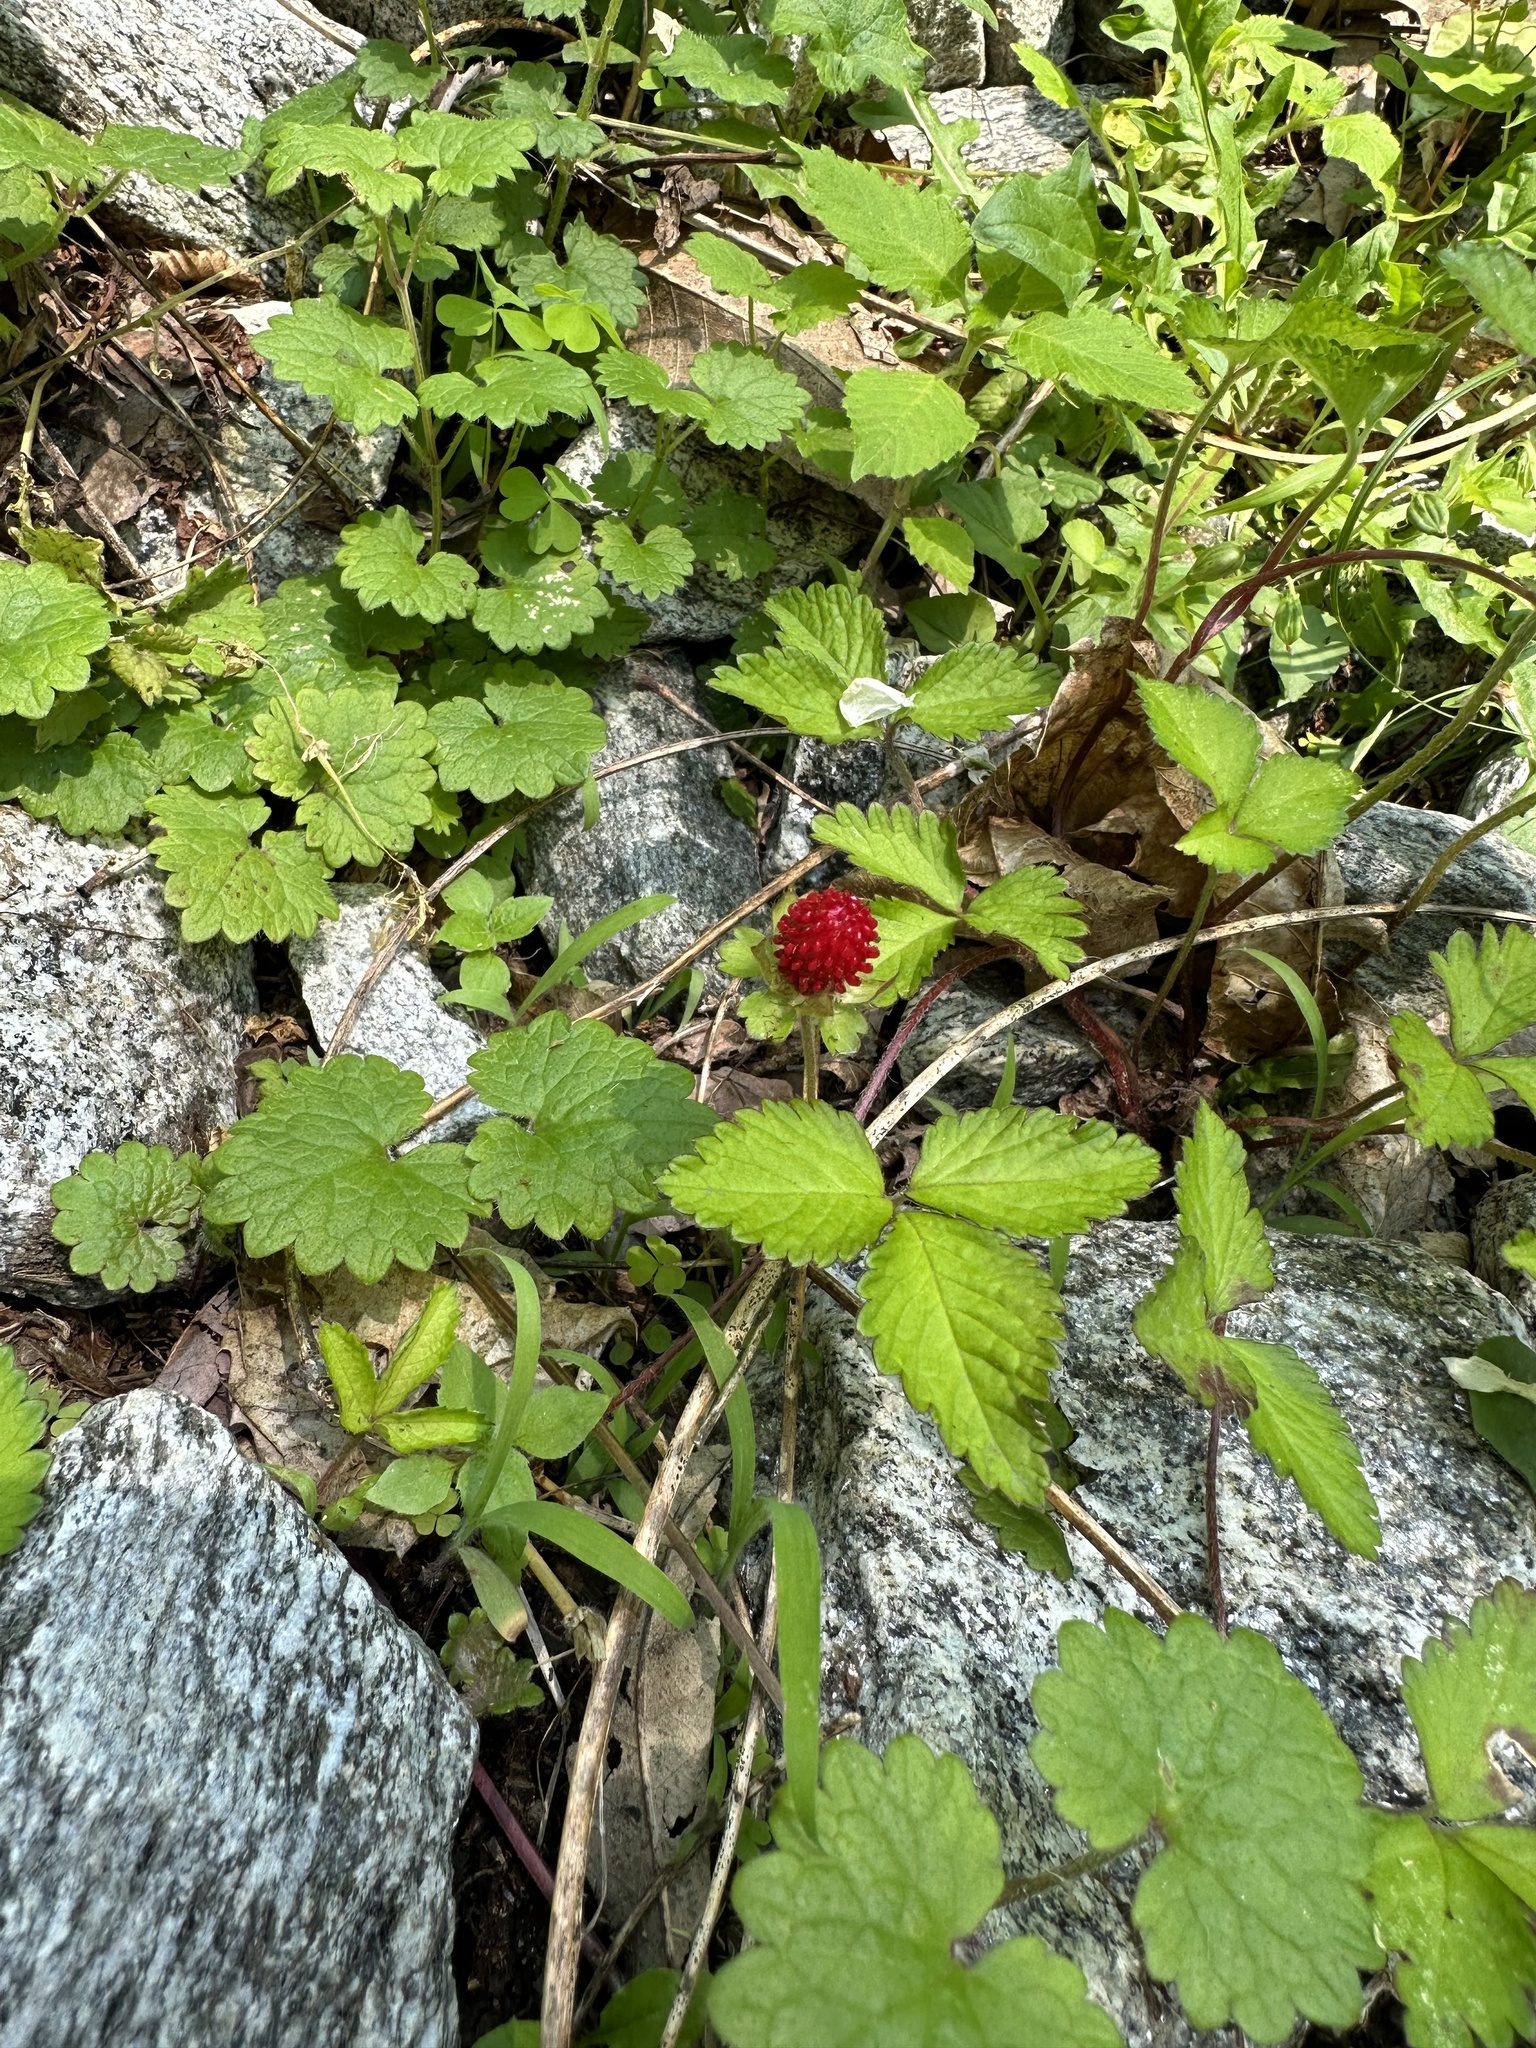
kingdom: Plantae
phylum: Tracheophyta
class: Magnoliopsida
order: Rosales
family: Rosaceae
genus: Potentilla
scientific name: Potentilla indica
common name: Yellow-flowered strawberry
